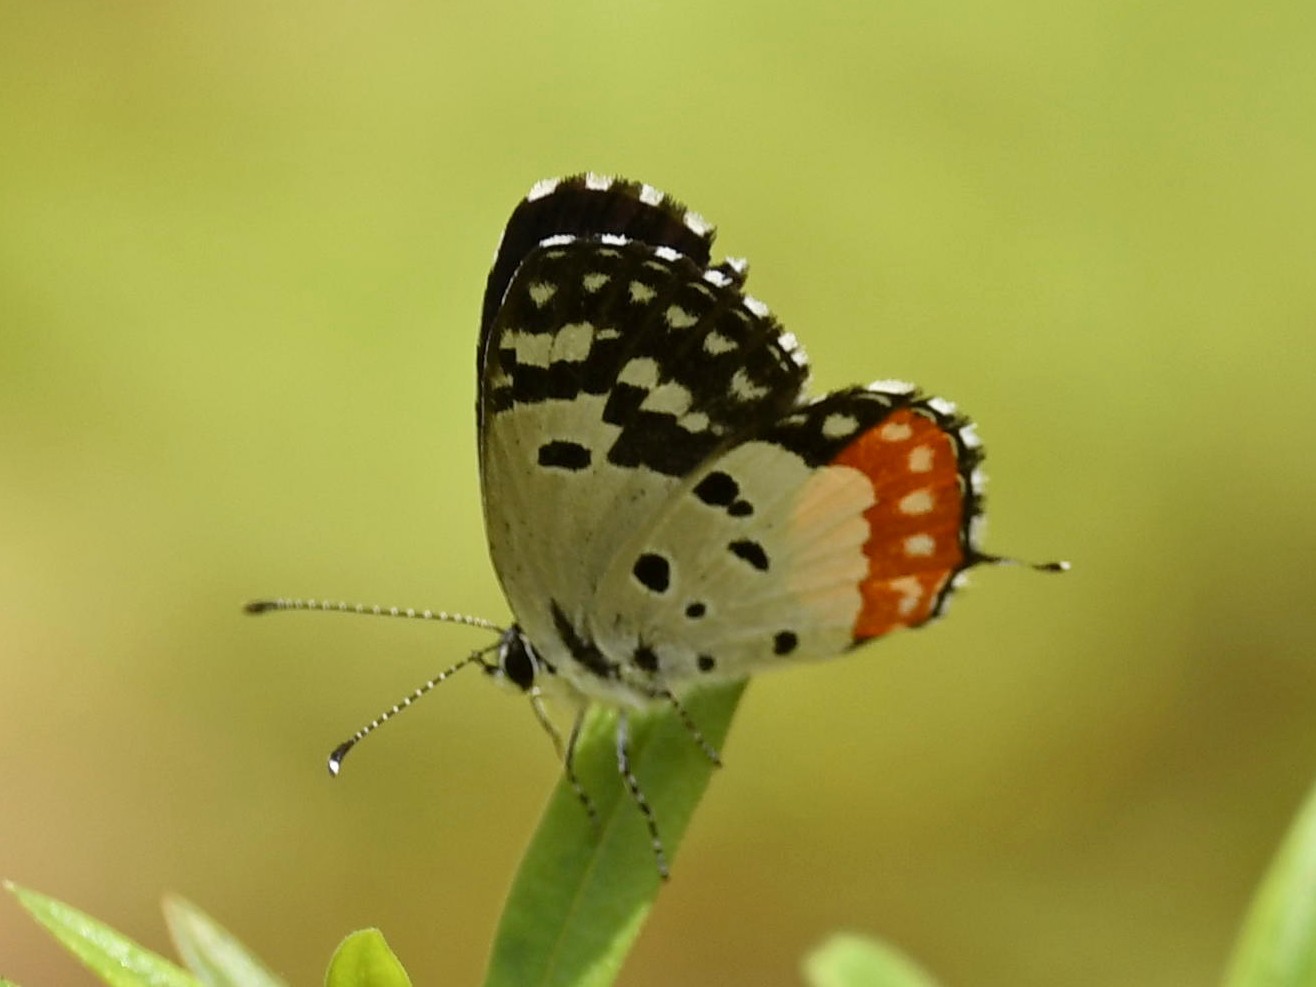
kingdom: Animalia
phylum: Arthropoda
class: Insecta
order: Lepidoptera
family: Lycaenidae
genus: Talicada
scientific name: Talicada nyseus
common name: Red pierrot
